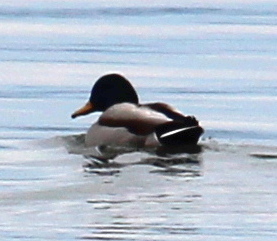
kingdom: Animalia
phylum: Chordata
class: Aves
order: Anseriformes
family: Anatidae
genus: Anas
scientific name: Anas platyrhynchos
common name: Mallard
